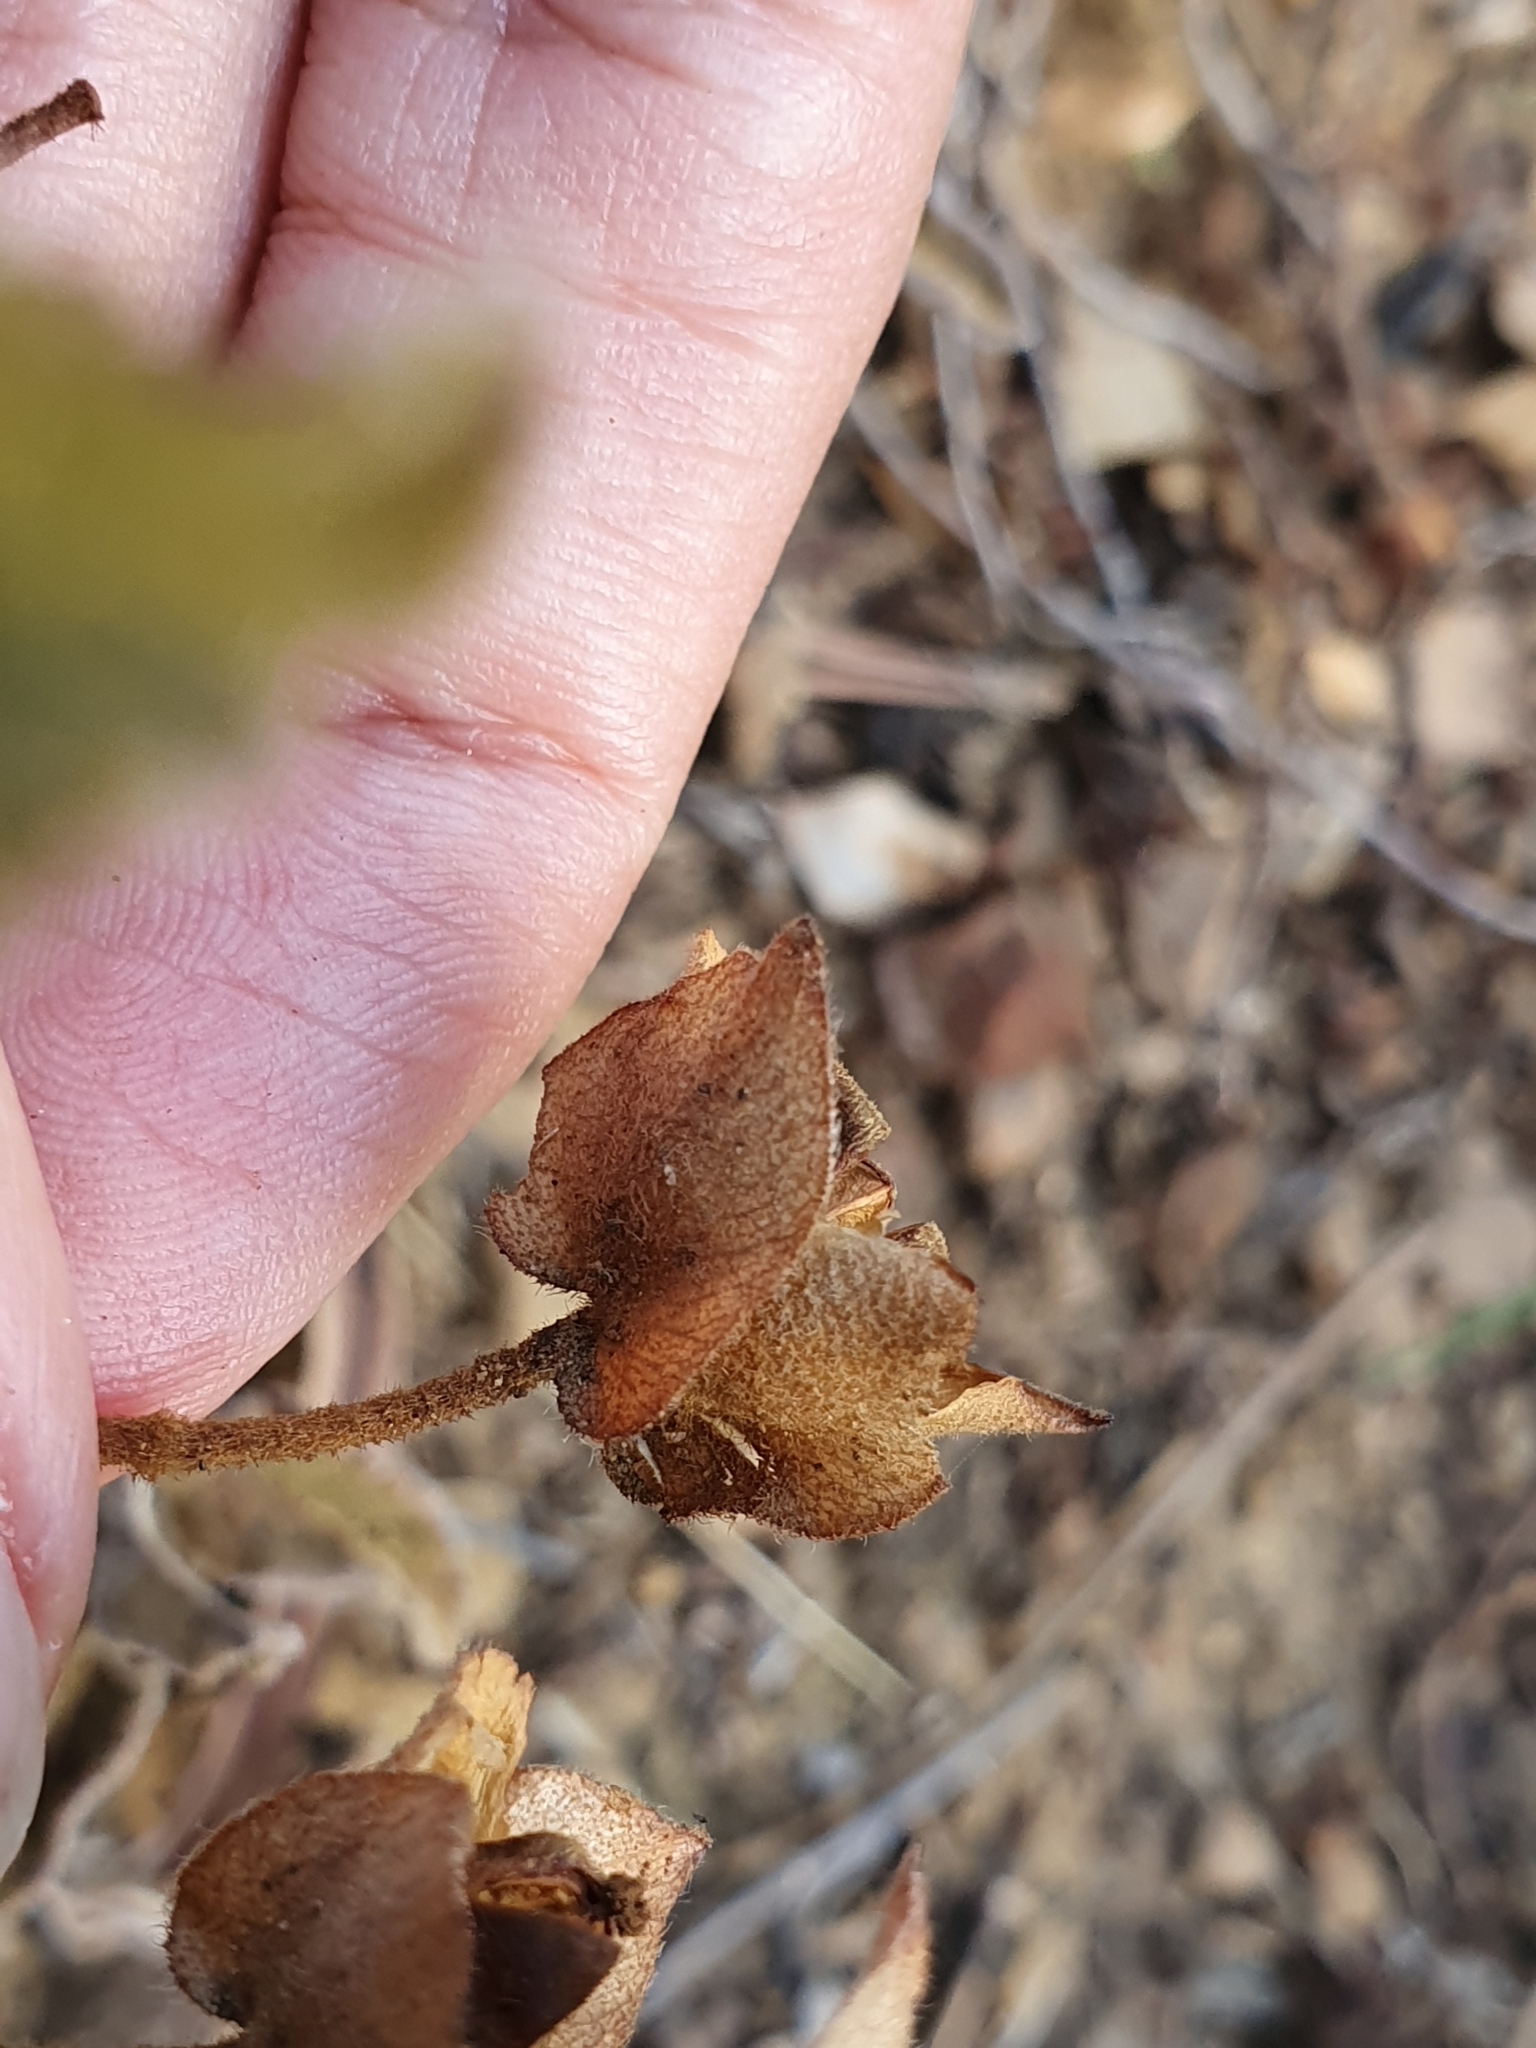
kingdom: Plantae
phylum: Tracheophyta
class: Magnoliopsida
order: Malvales
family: Cistaceae
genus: Cistus
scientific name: Cistus salviifolius
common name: Salvia cistus
